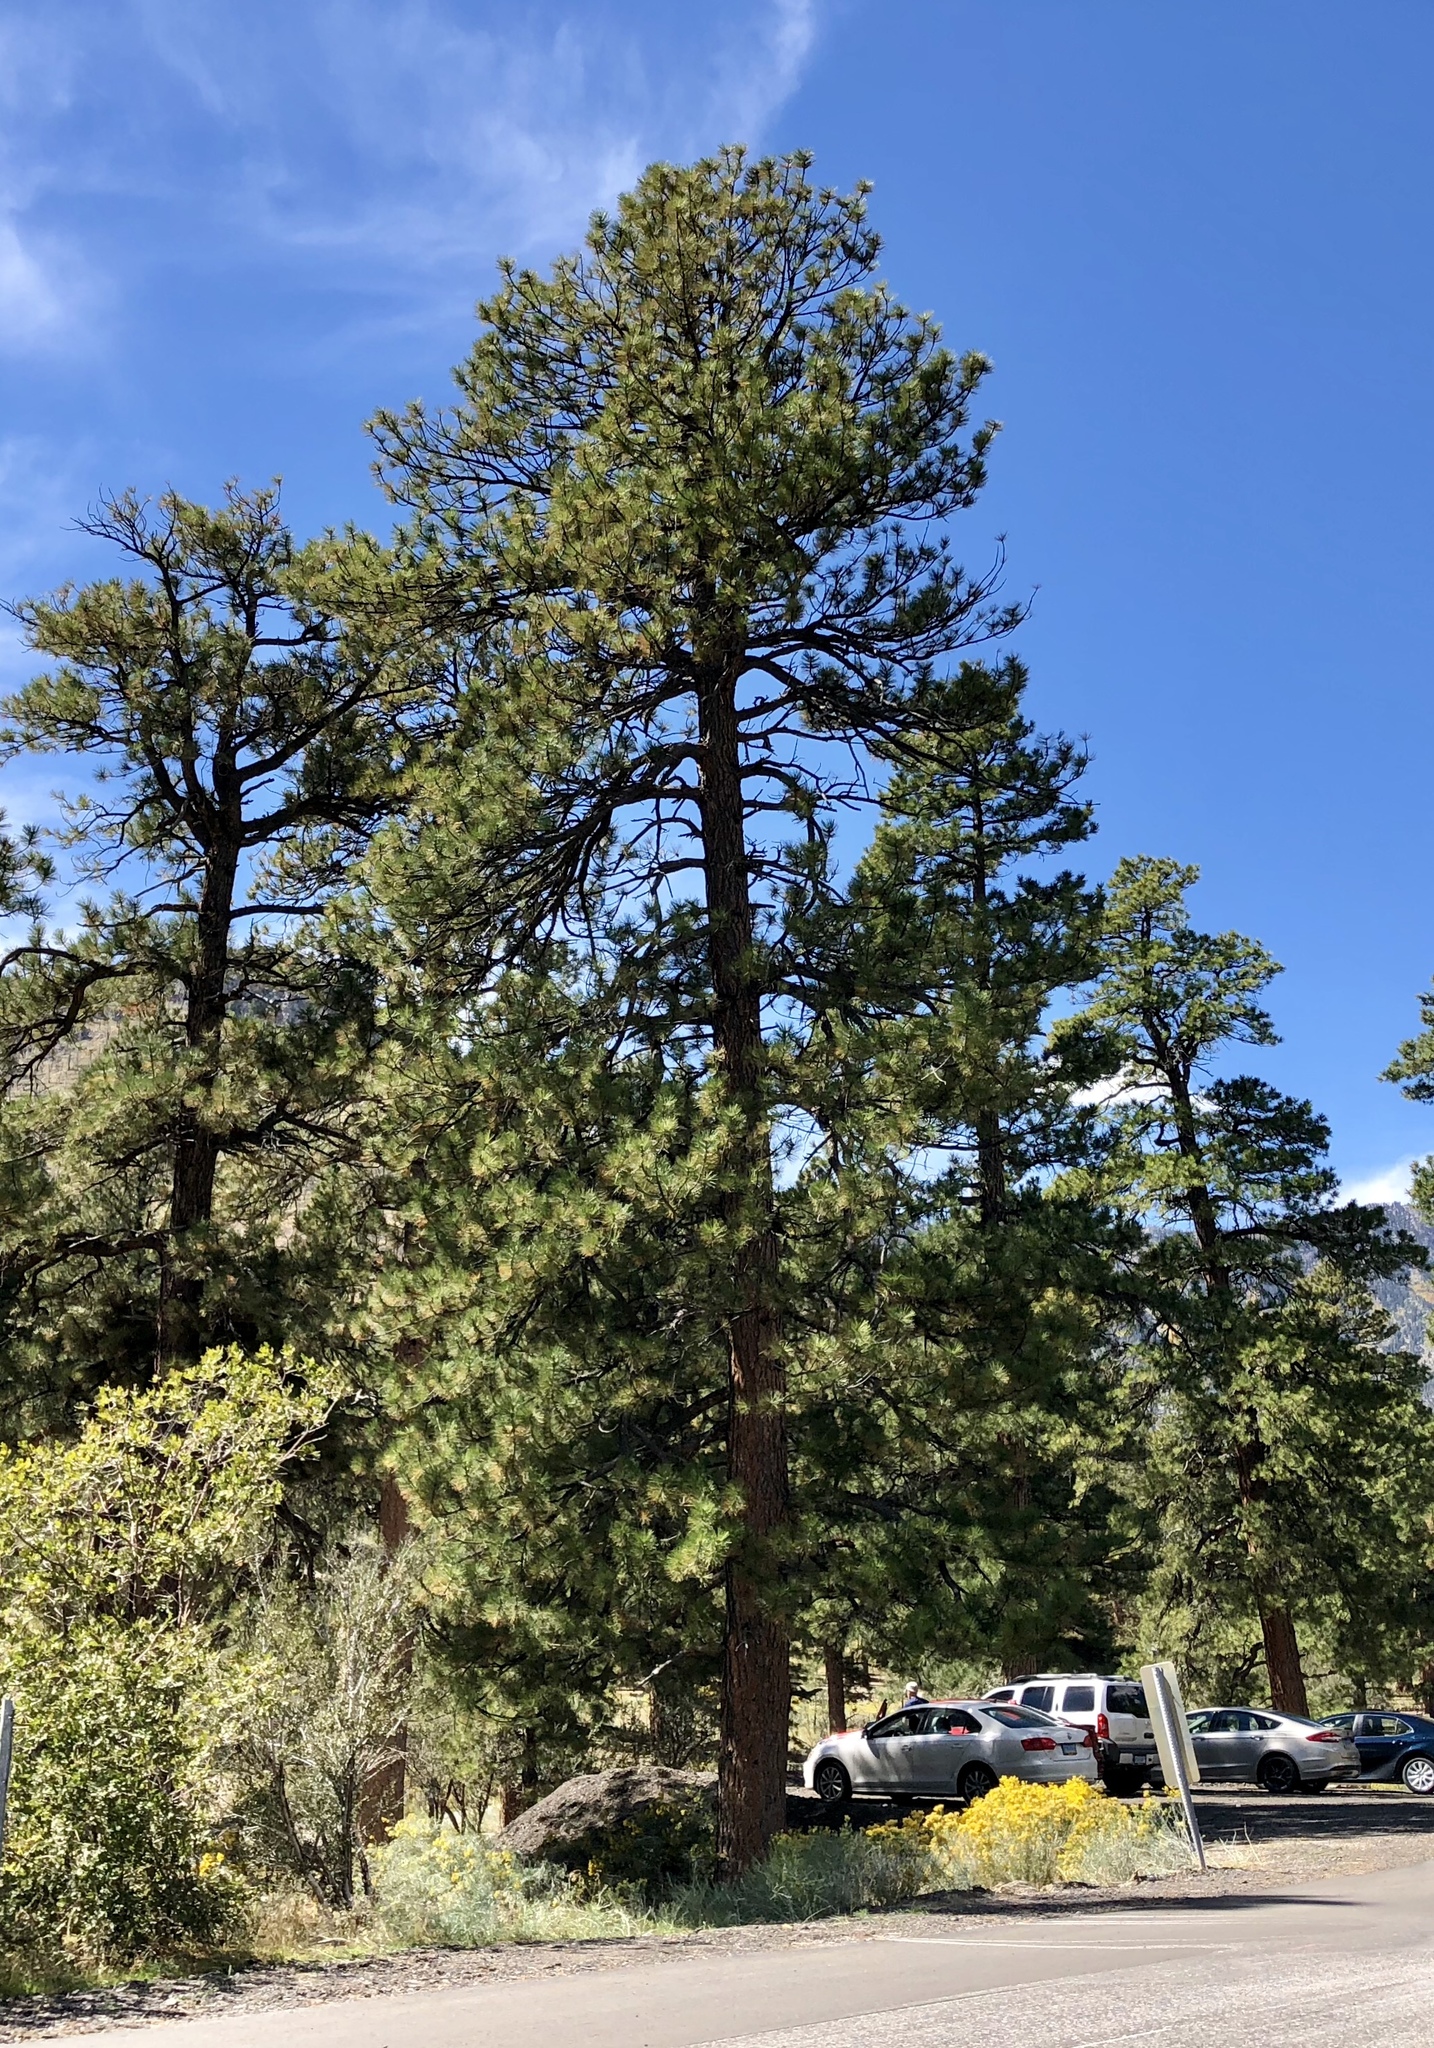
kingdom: Plantae
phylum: Tracheophyta
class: Pinopsida
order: Pinales
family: Pinaceae
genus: Pinus
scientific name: Pinus ponderosa
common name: Western yellow-pine
